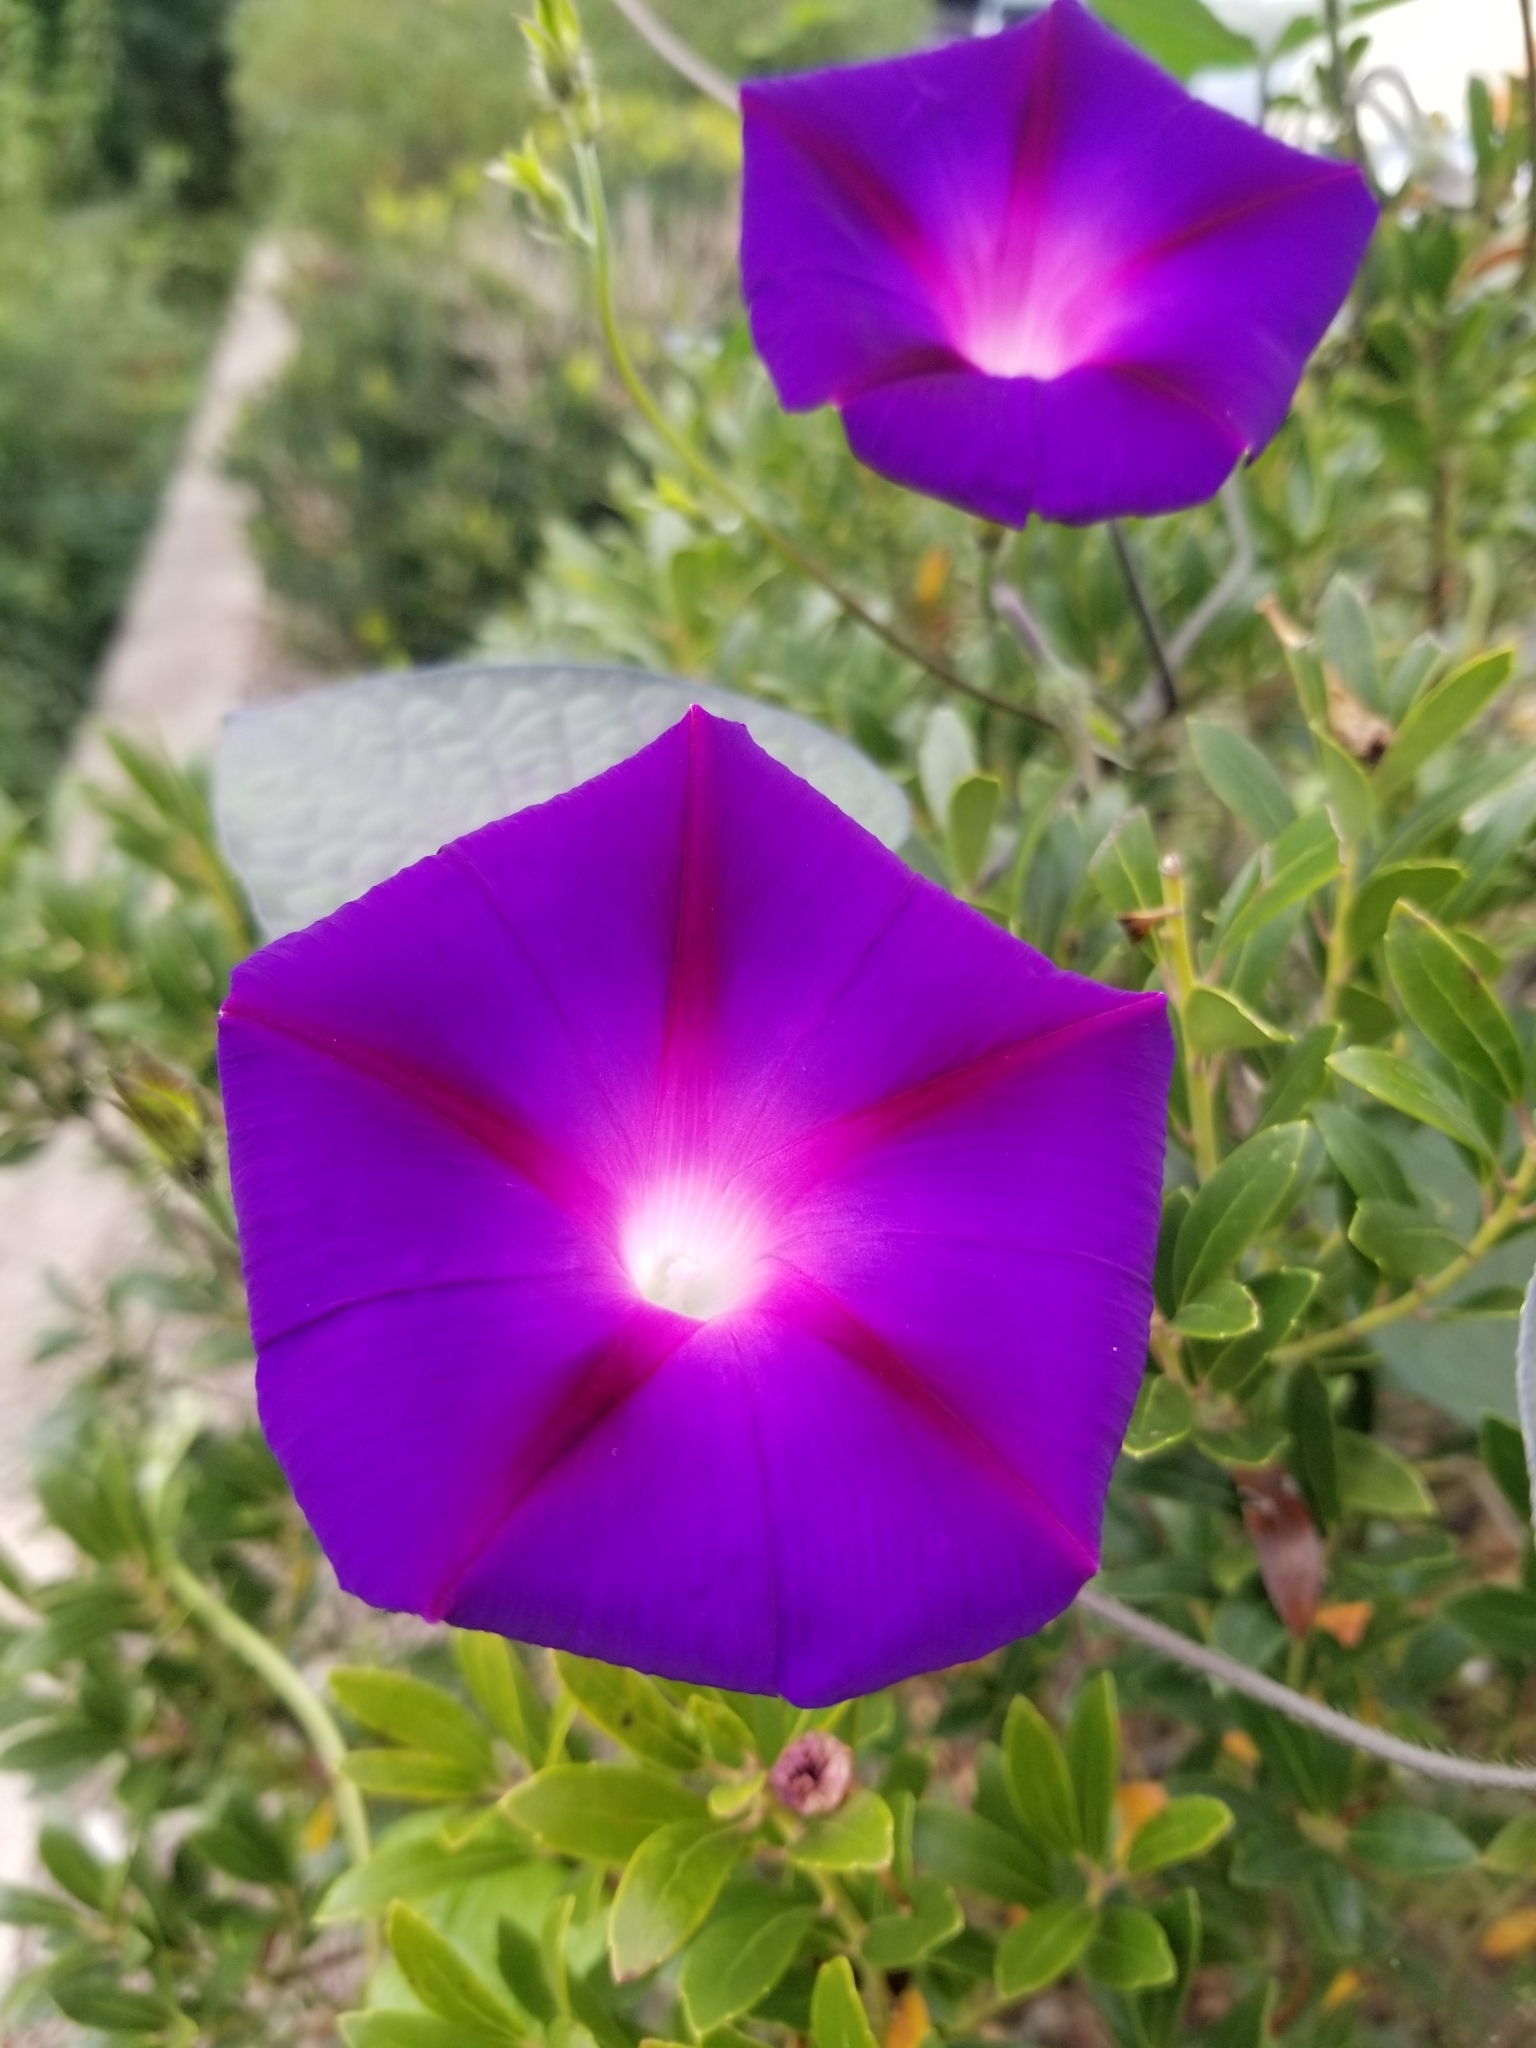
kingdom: Plantae
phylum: Tracheophyta
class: Magnoliopsida
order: Solanales
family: Convolvulaceae
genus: Ipomoea
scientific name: Ipomoea purpurea
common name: Common morning-glory
